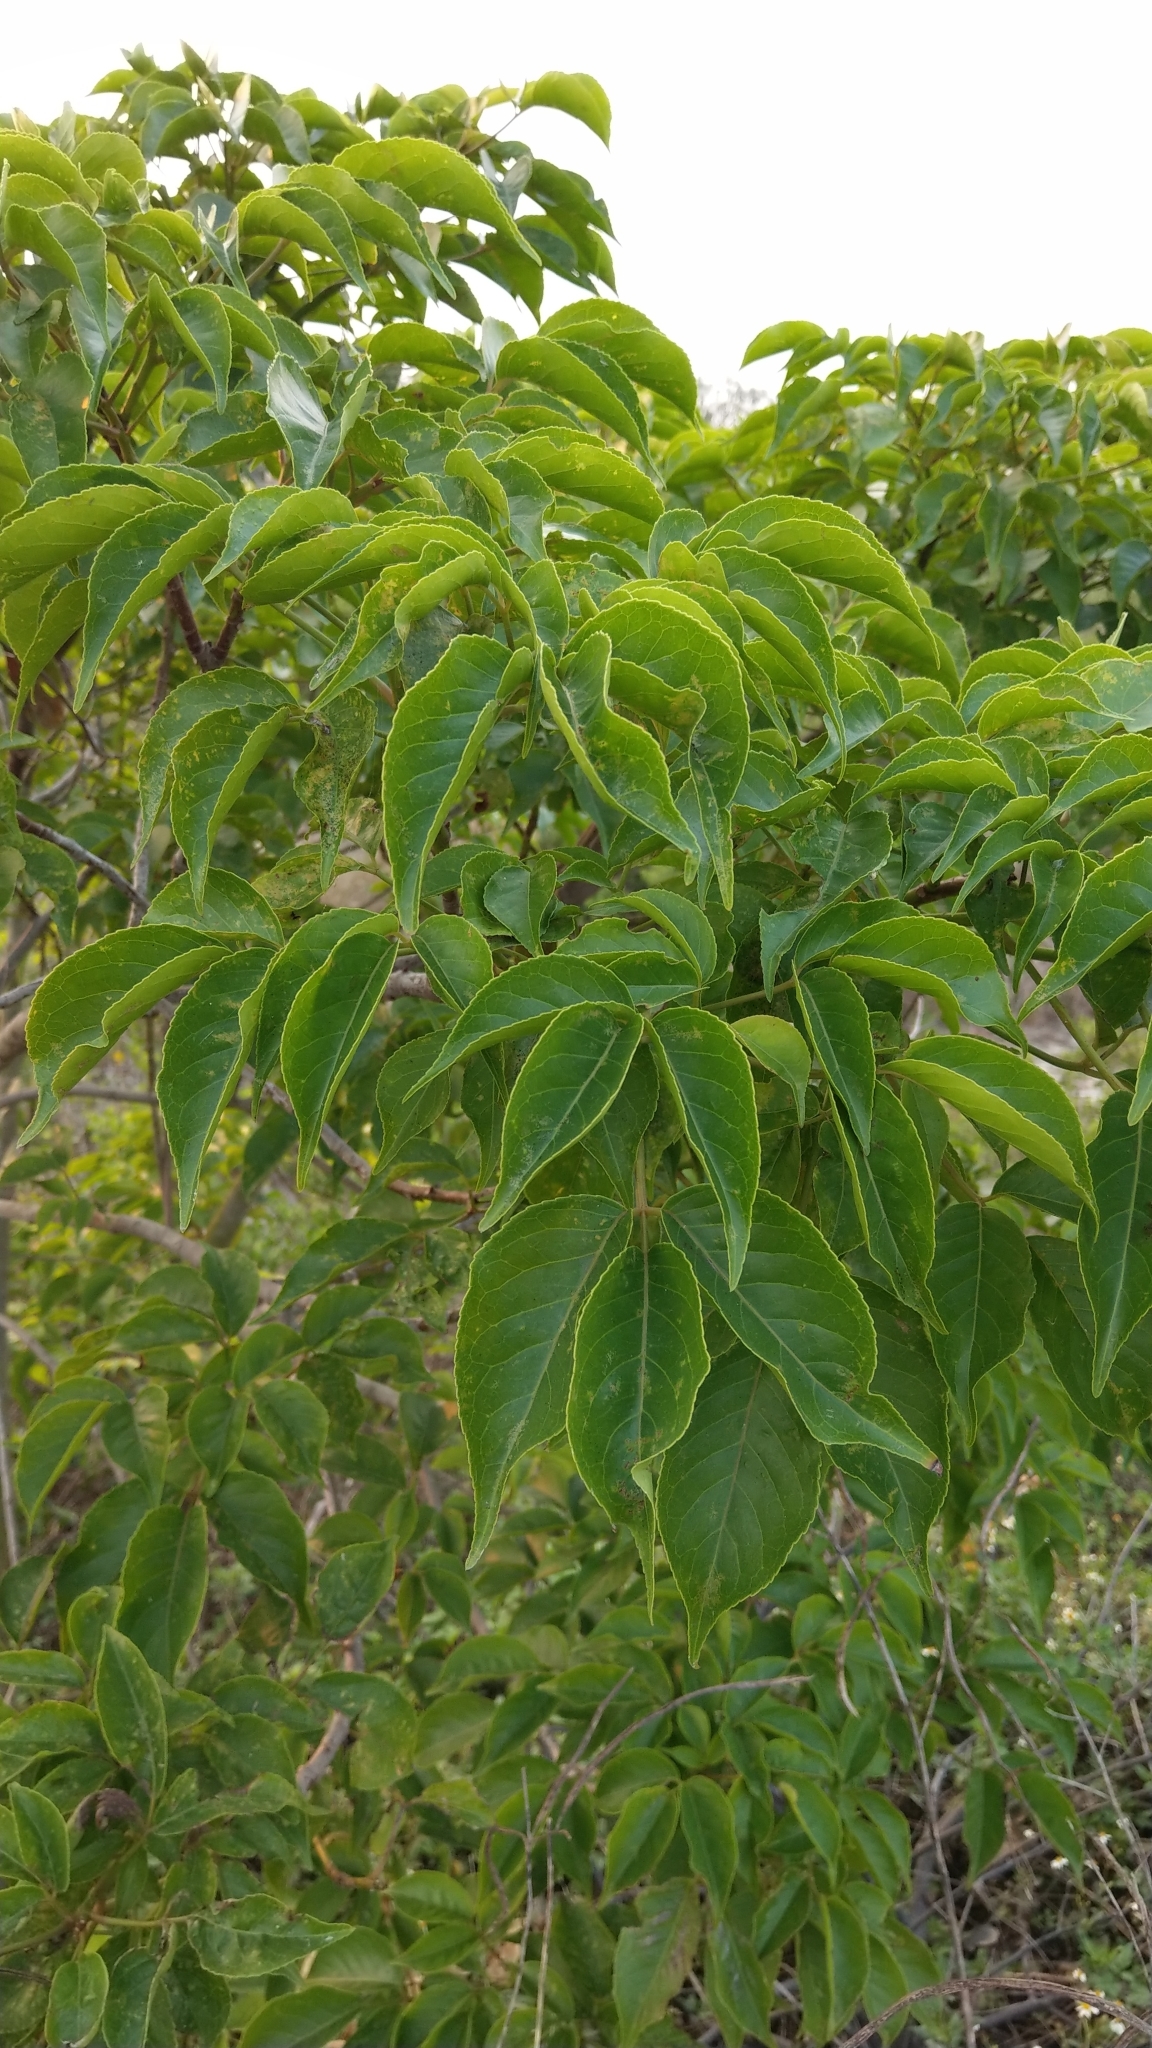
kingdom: Plantae
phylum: Tracheophyta
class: Magnoliopsida
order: Malpighiales
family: Phyllanthaceae
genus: Bischofia
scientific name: Bischofia javanica
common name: Javanese bishopwood
